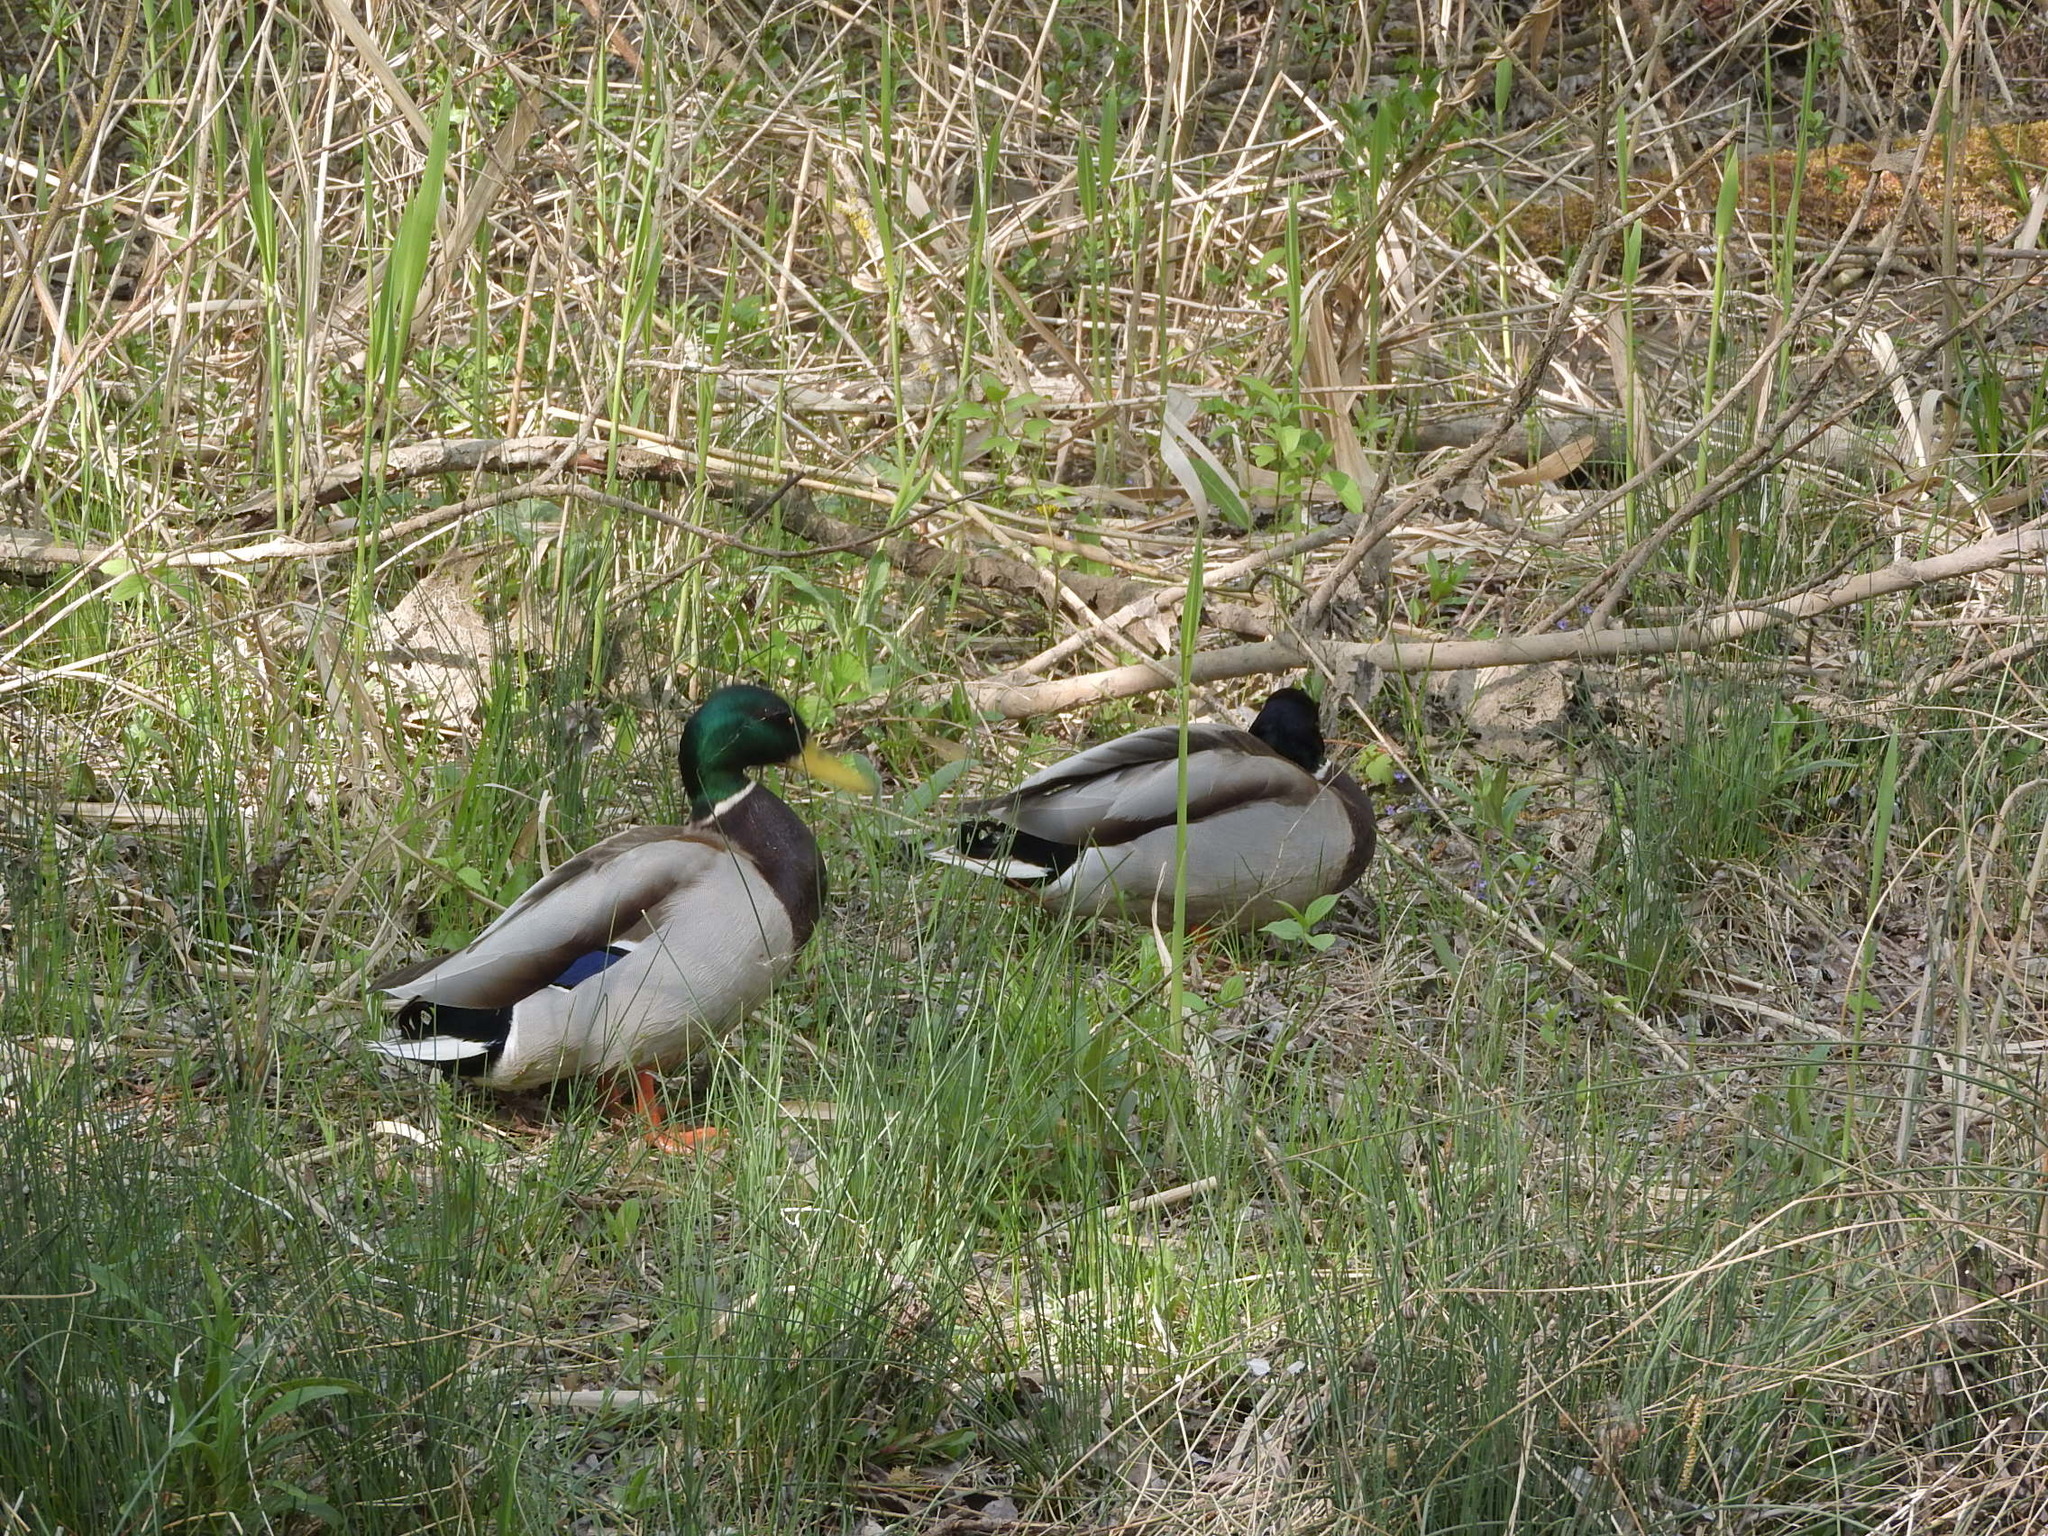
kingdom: Animalia
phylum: Chordata
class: Aves
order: Anseriformes
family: Anatidae
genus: Anas
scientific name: Anas platyrhynchos
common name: Mallard
